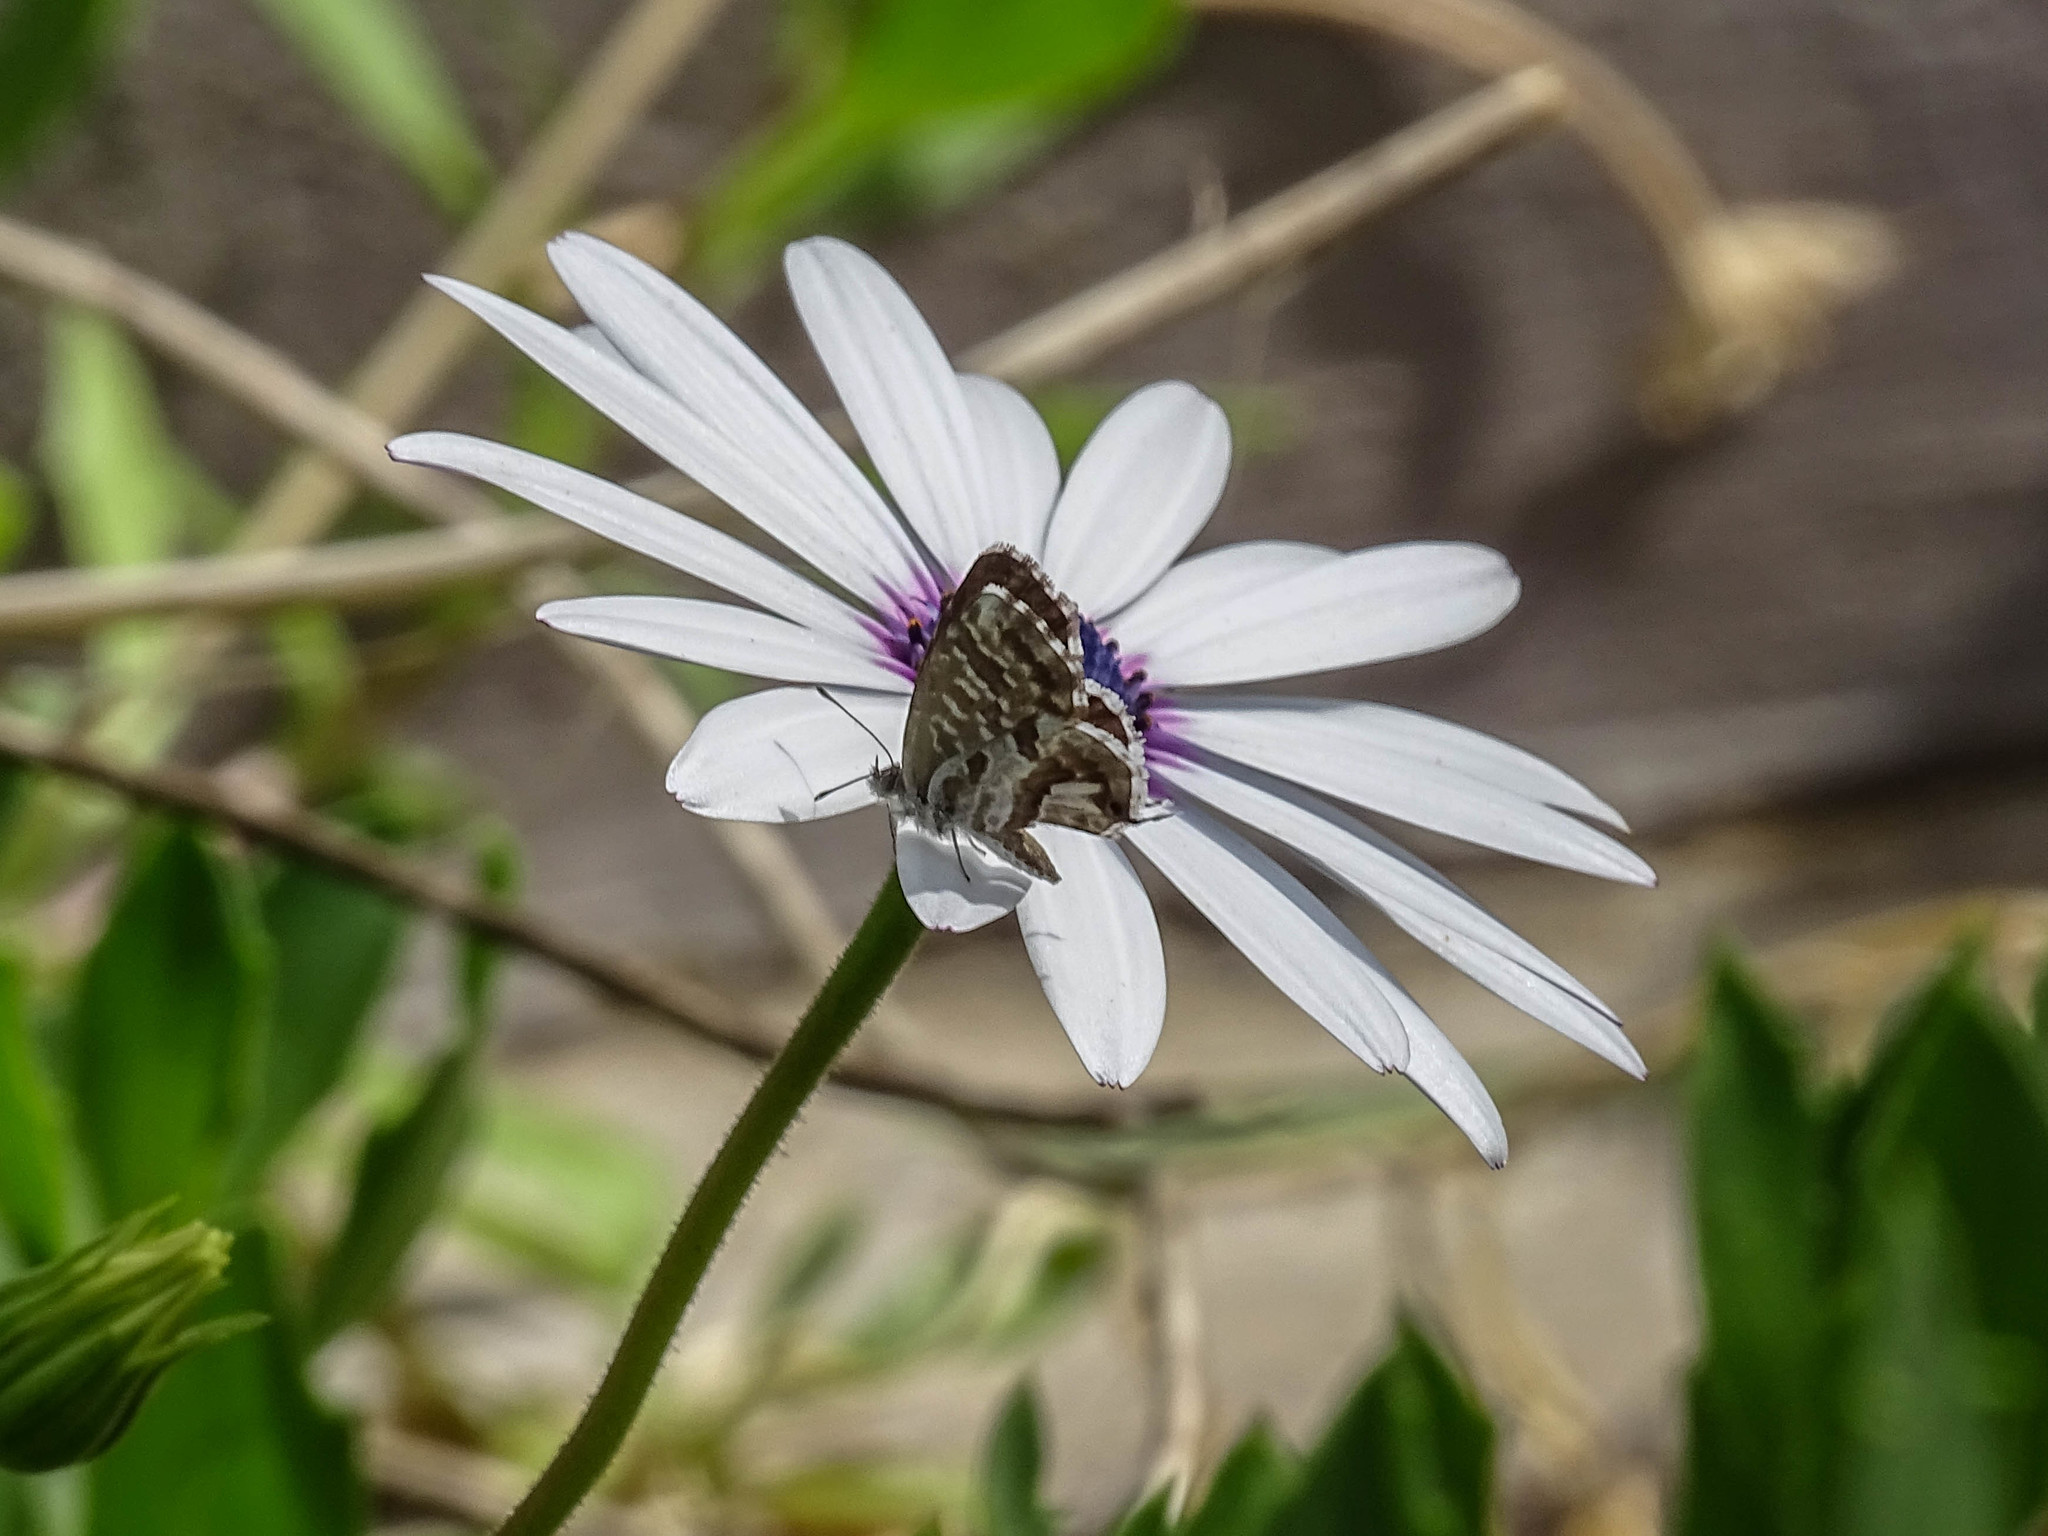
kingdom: Animalia
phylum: Arthropoda
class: Insecta
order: Lepidoptera
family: Lycaenidae
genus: Cacyreus
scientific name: Cacyreus marshalli
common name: Geranium bronze
